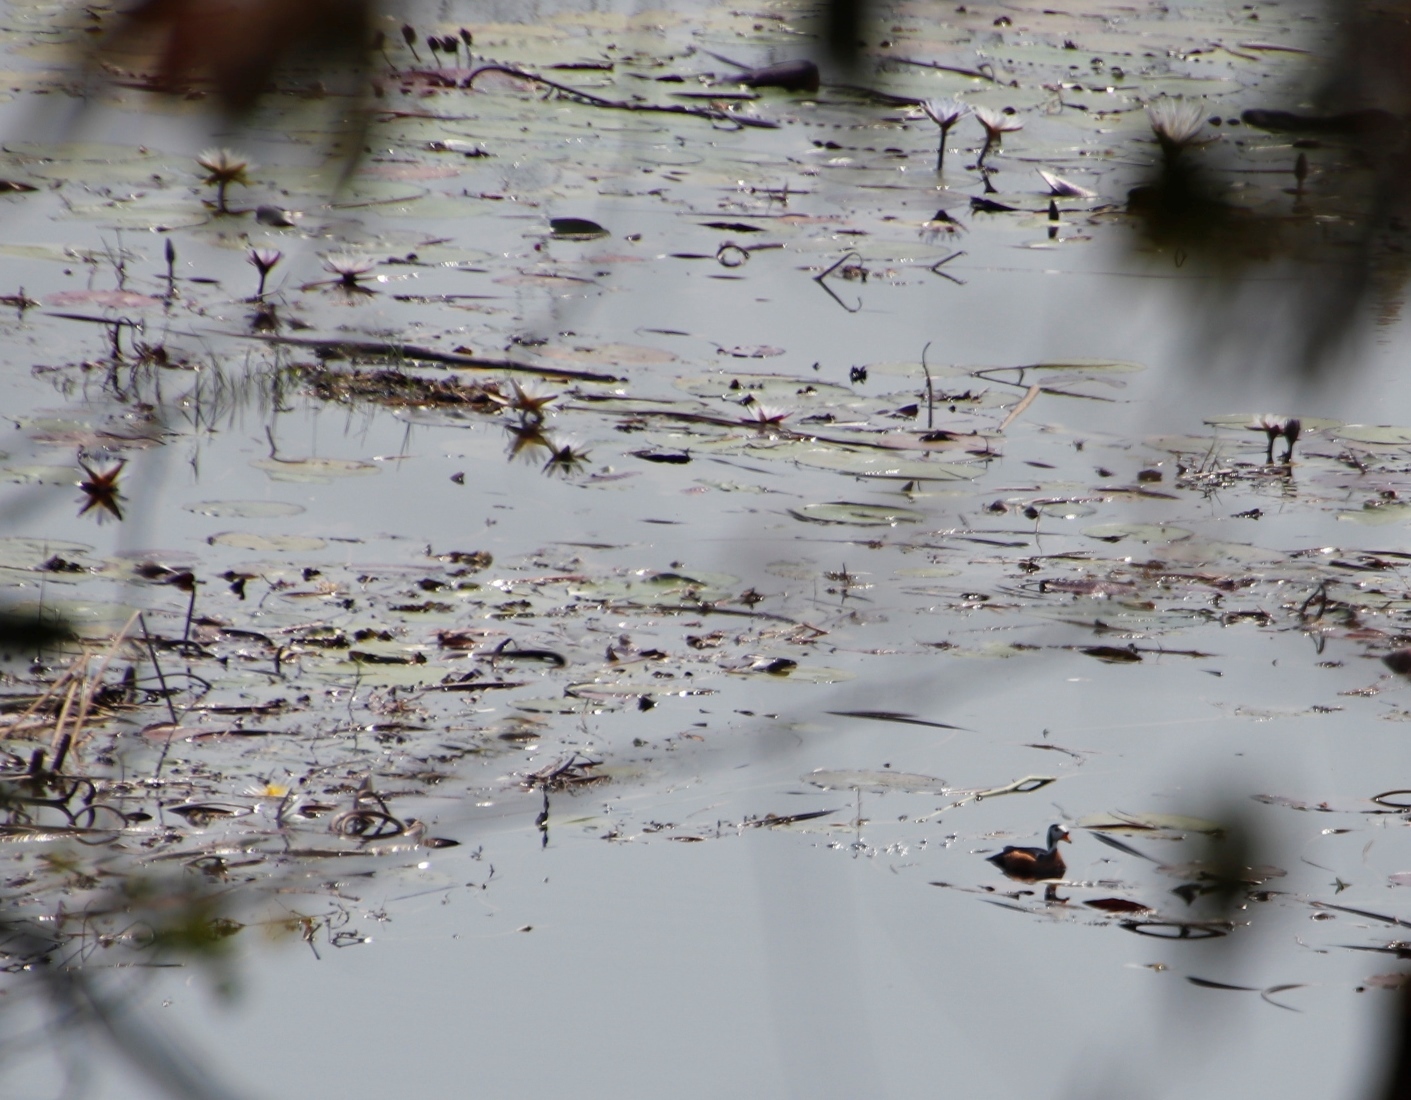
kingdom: Plantae
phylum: Tracheophyta
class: Magnoliopsida
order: Nymphaeales
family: Nymphaeaceae
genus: Nymphaea
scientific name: Nymphaea nouchali
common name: Blue lotus
